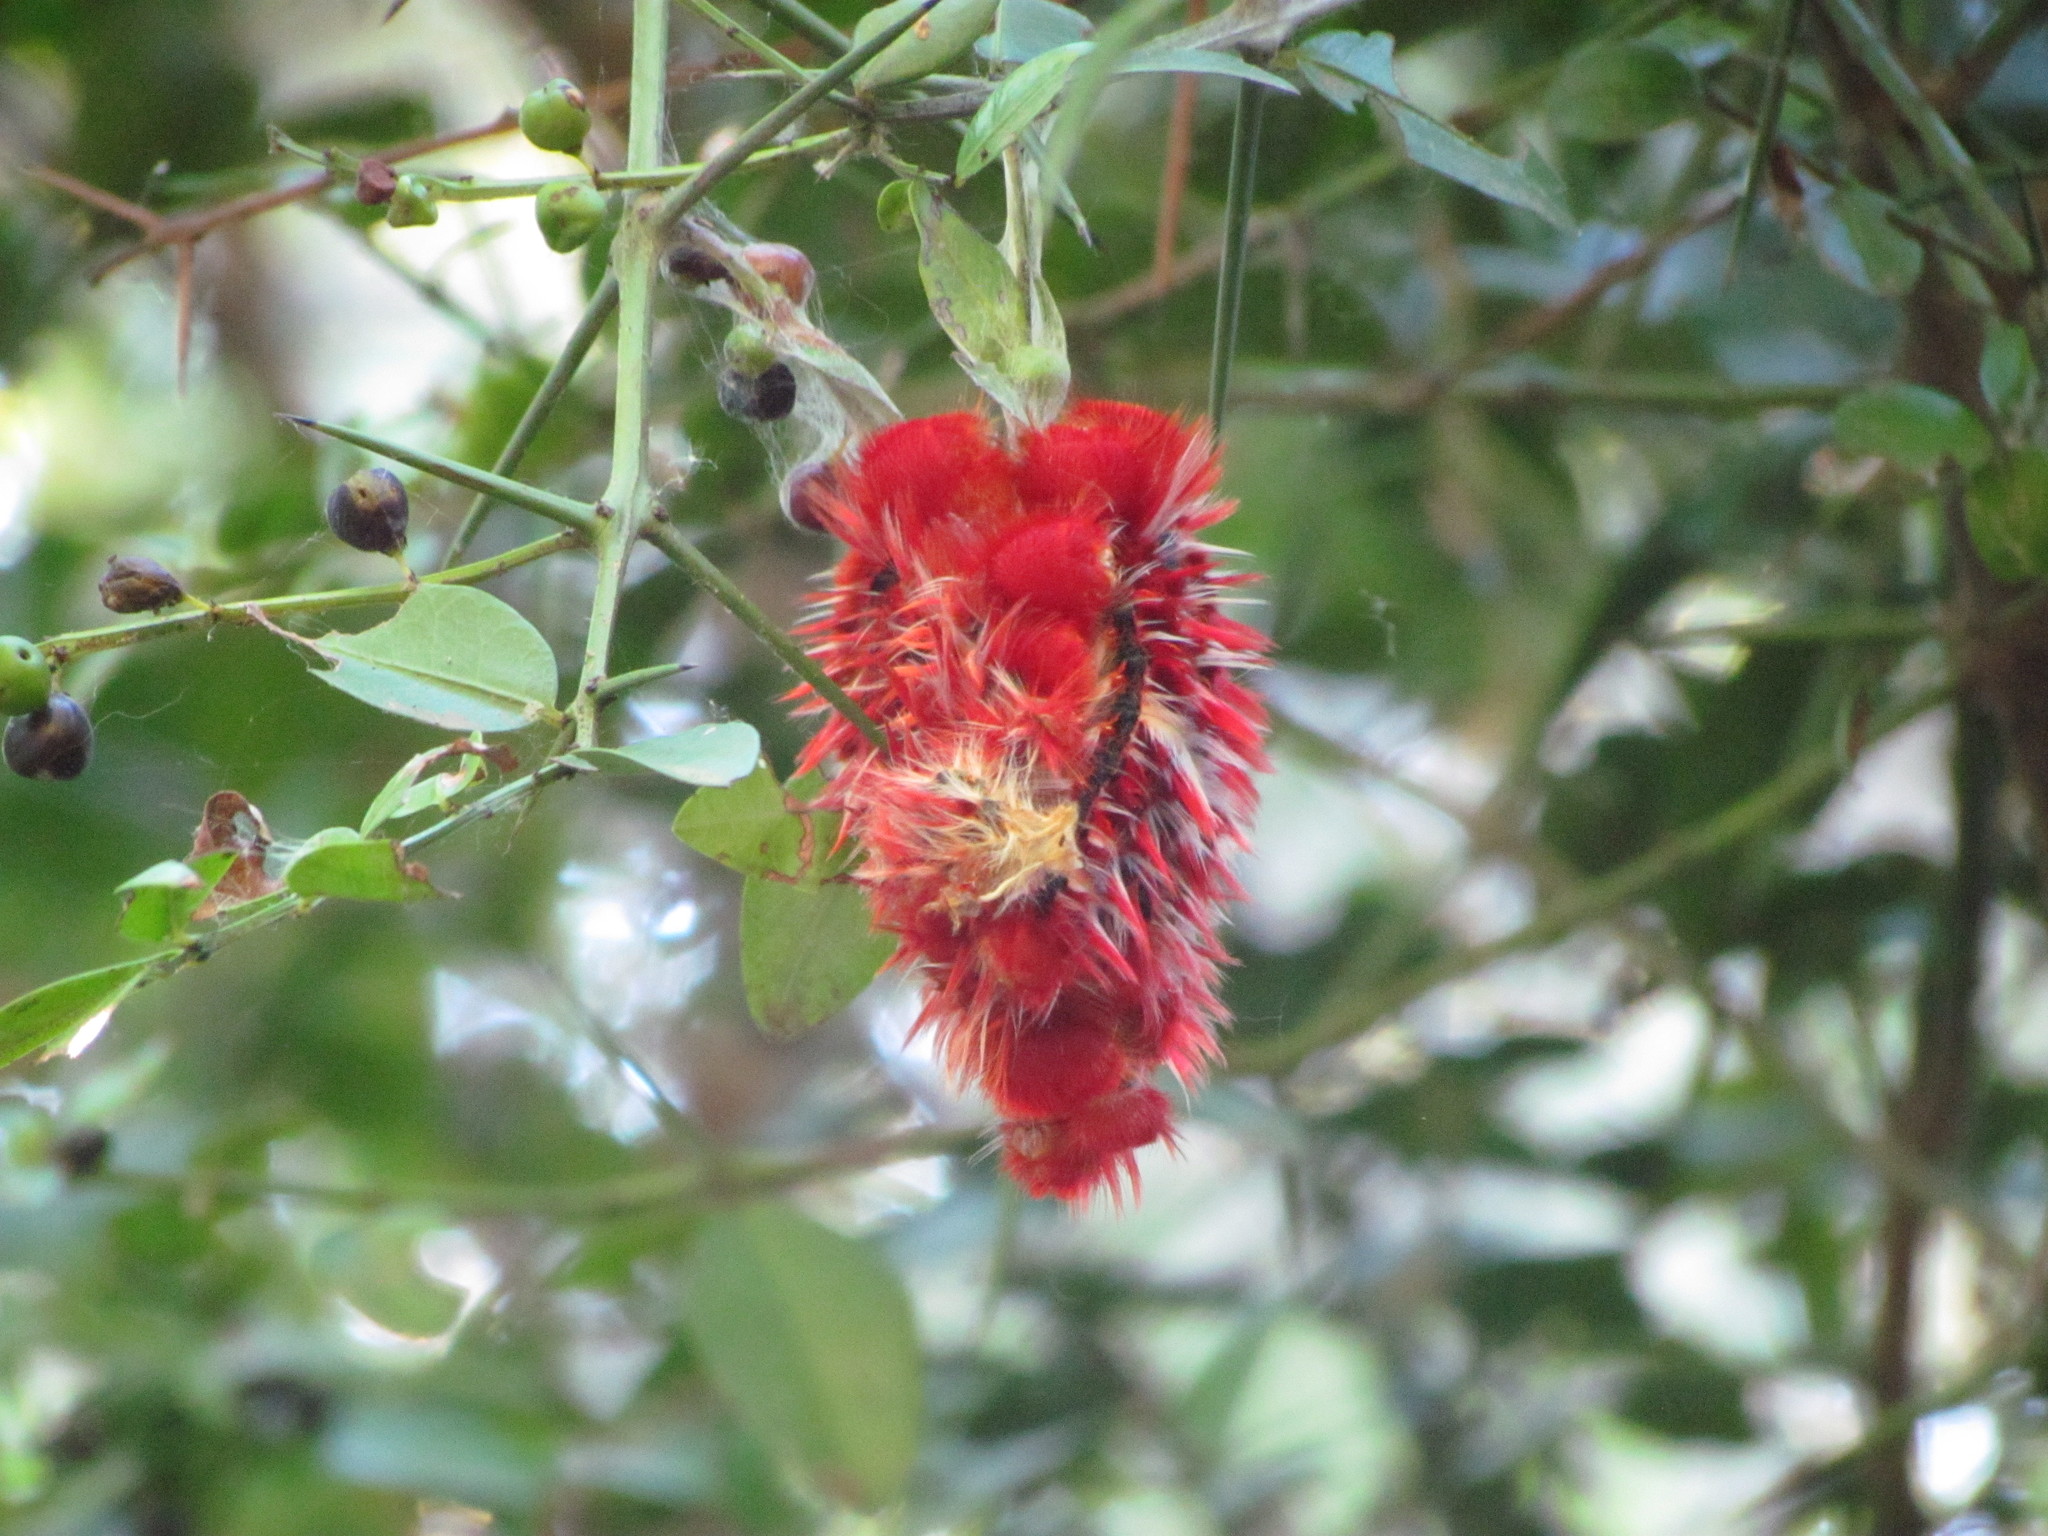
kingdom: Animalia
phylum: Arthropoda
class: Insecta
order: Lepidoptera
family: Nymphalidae
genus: Morpho
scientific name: Morpho epistrophus
